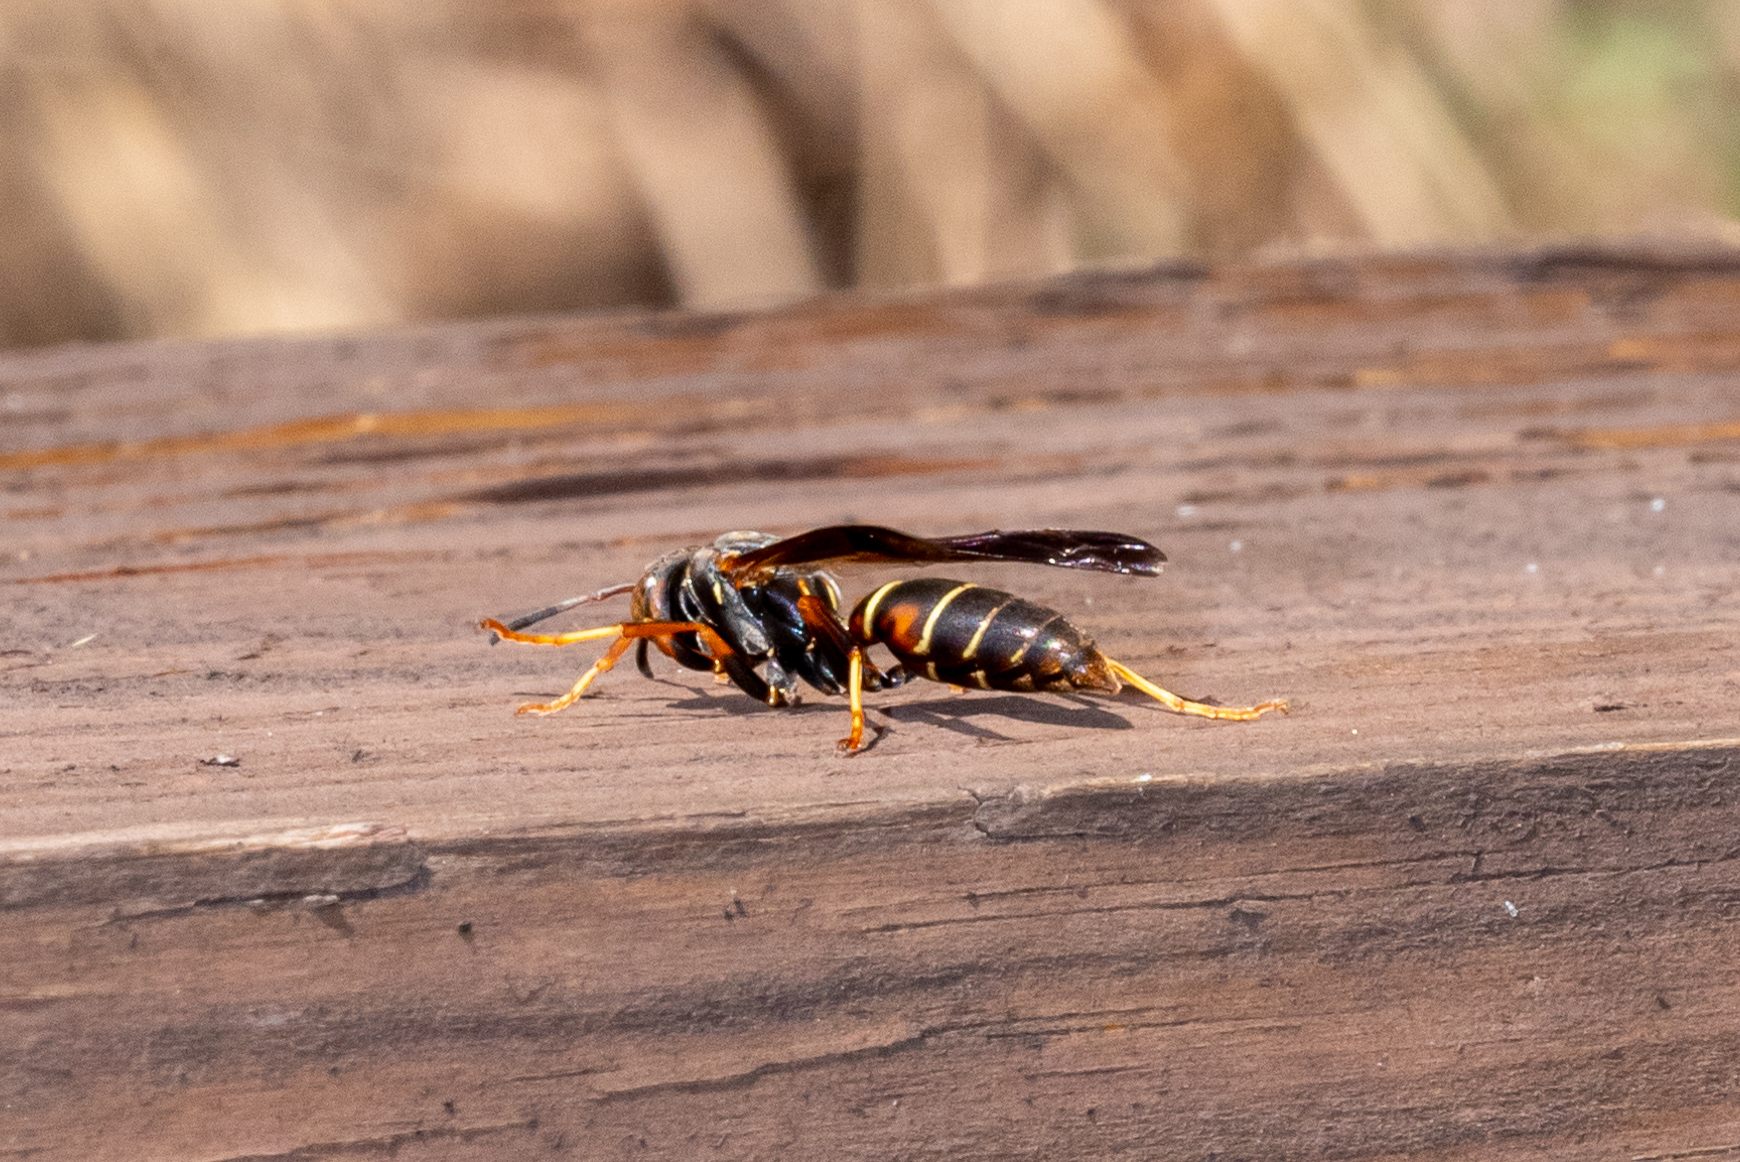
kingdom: Animalia
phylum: Arthropoda
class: Insecta
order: Hymenoptera
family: Eumenidae
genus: Polistes
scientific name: Polistes fuscatus
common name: Dark paper wasp
